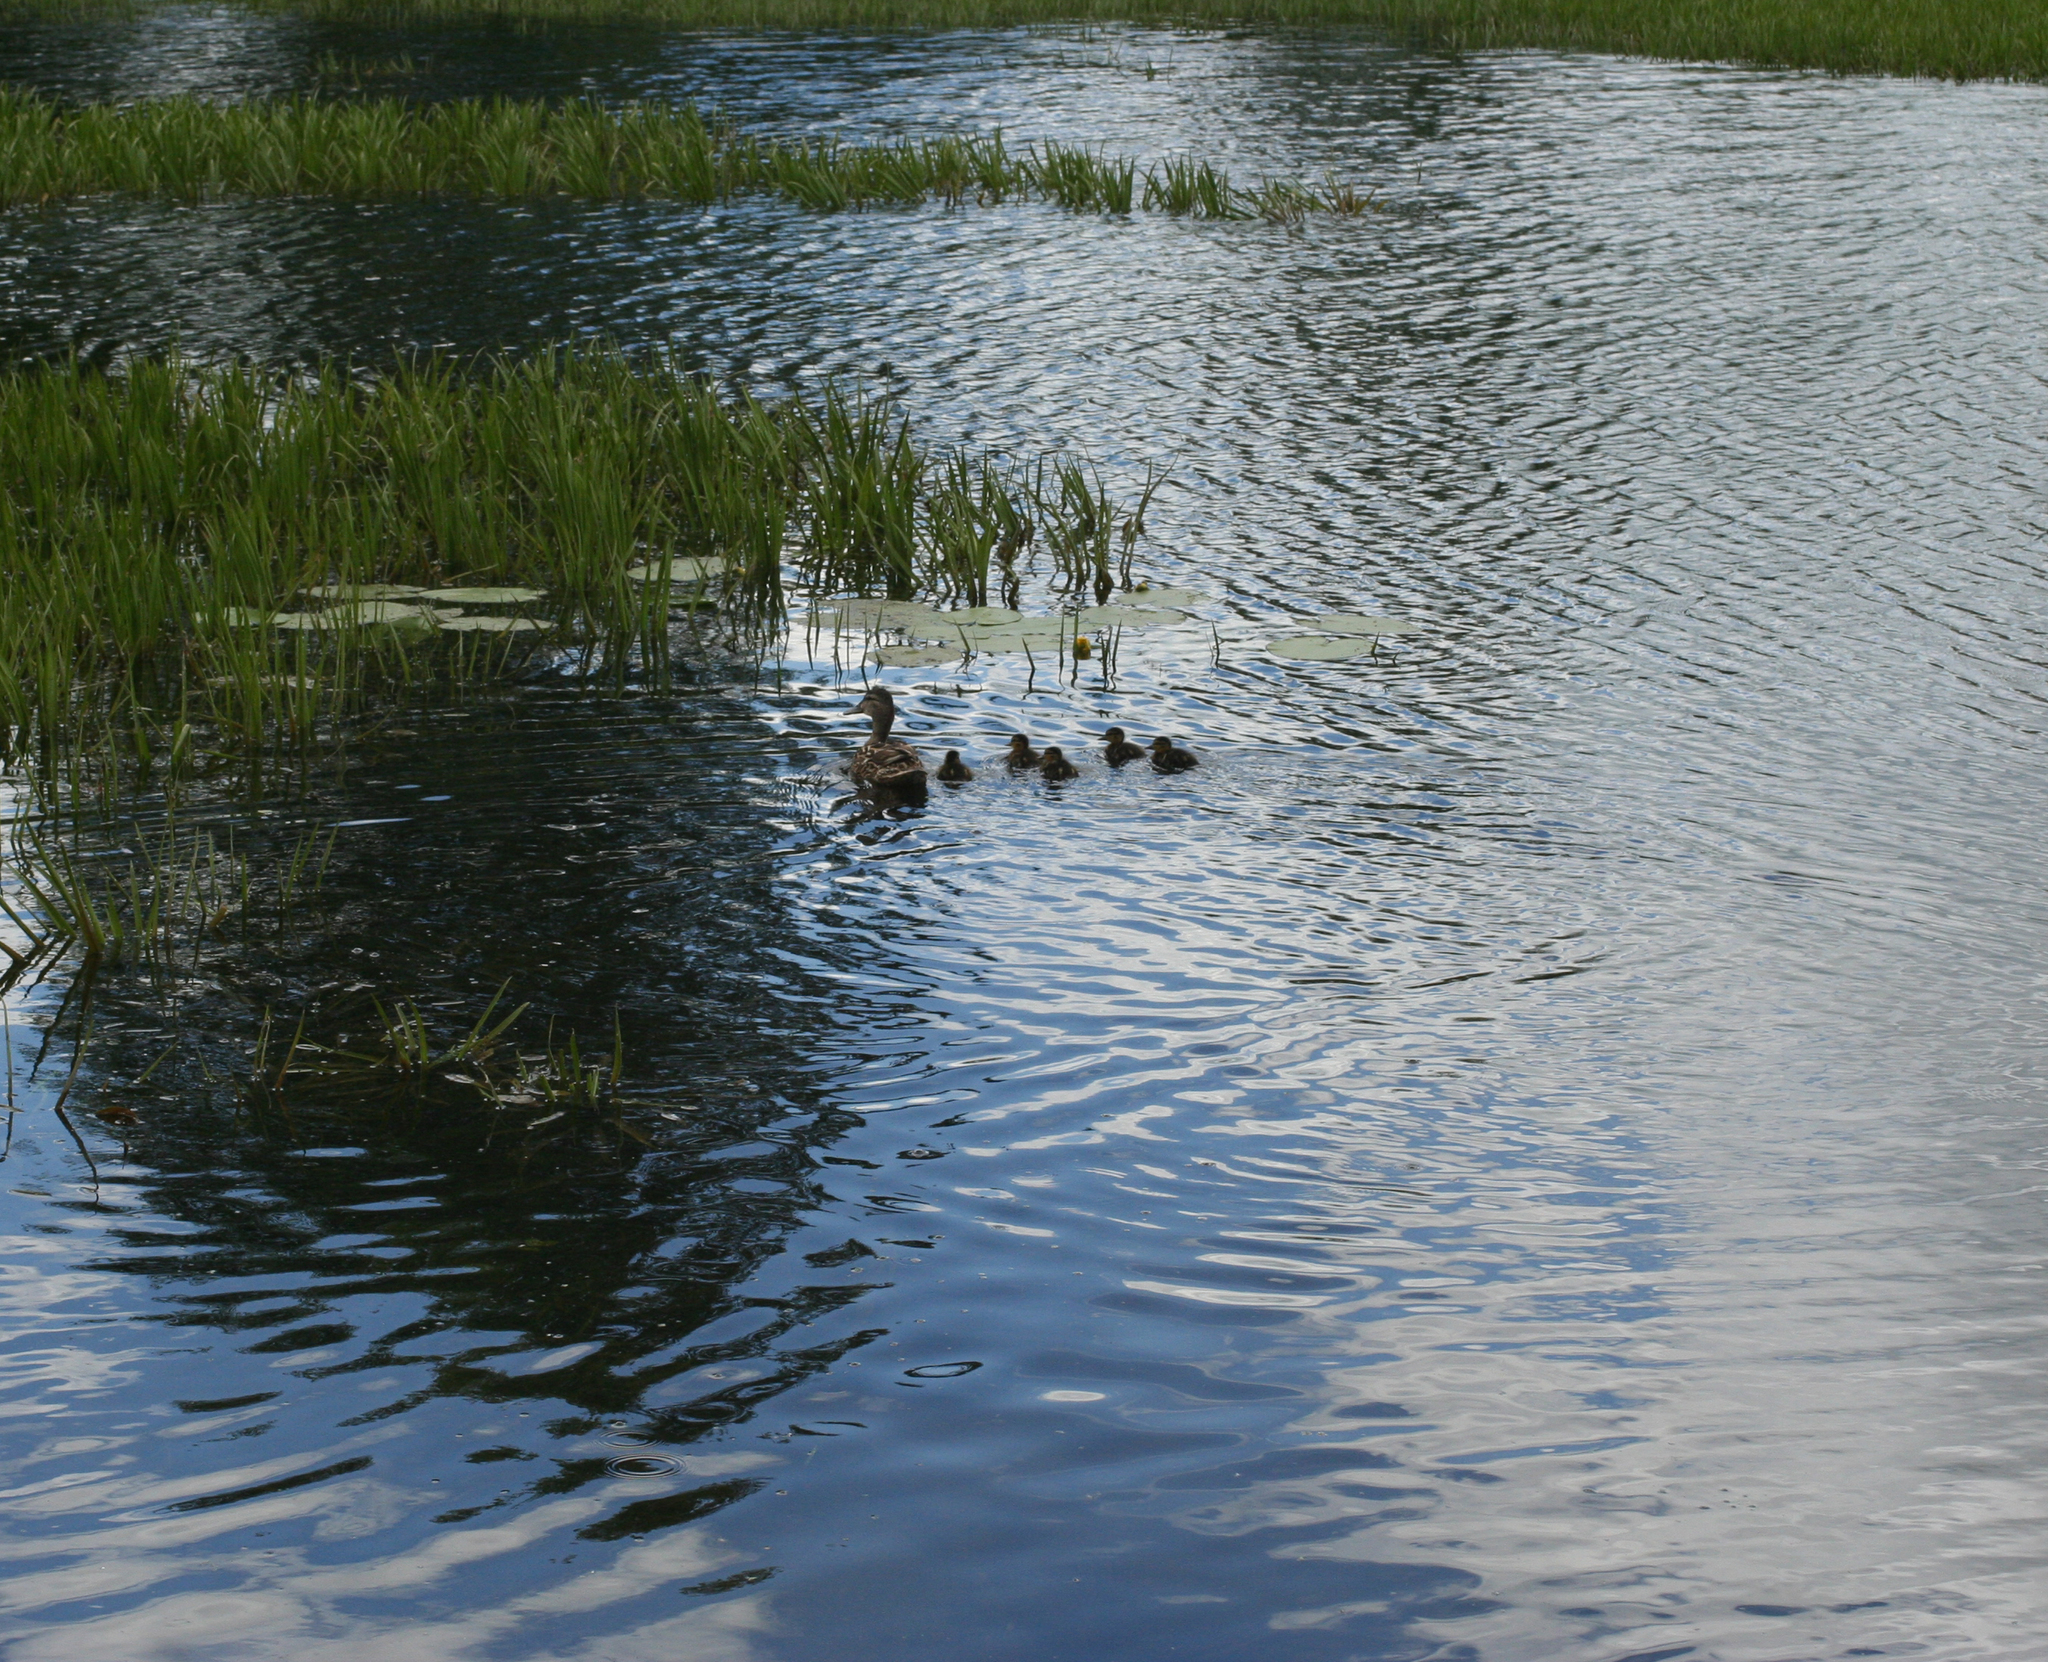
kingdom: Animalia
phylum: Chordata
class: Aves
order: Anseriformes
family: Anatidae
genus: Anas
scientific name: Anas platyrhynchos
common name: Mallard
